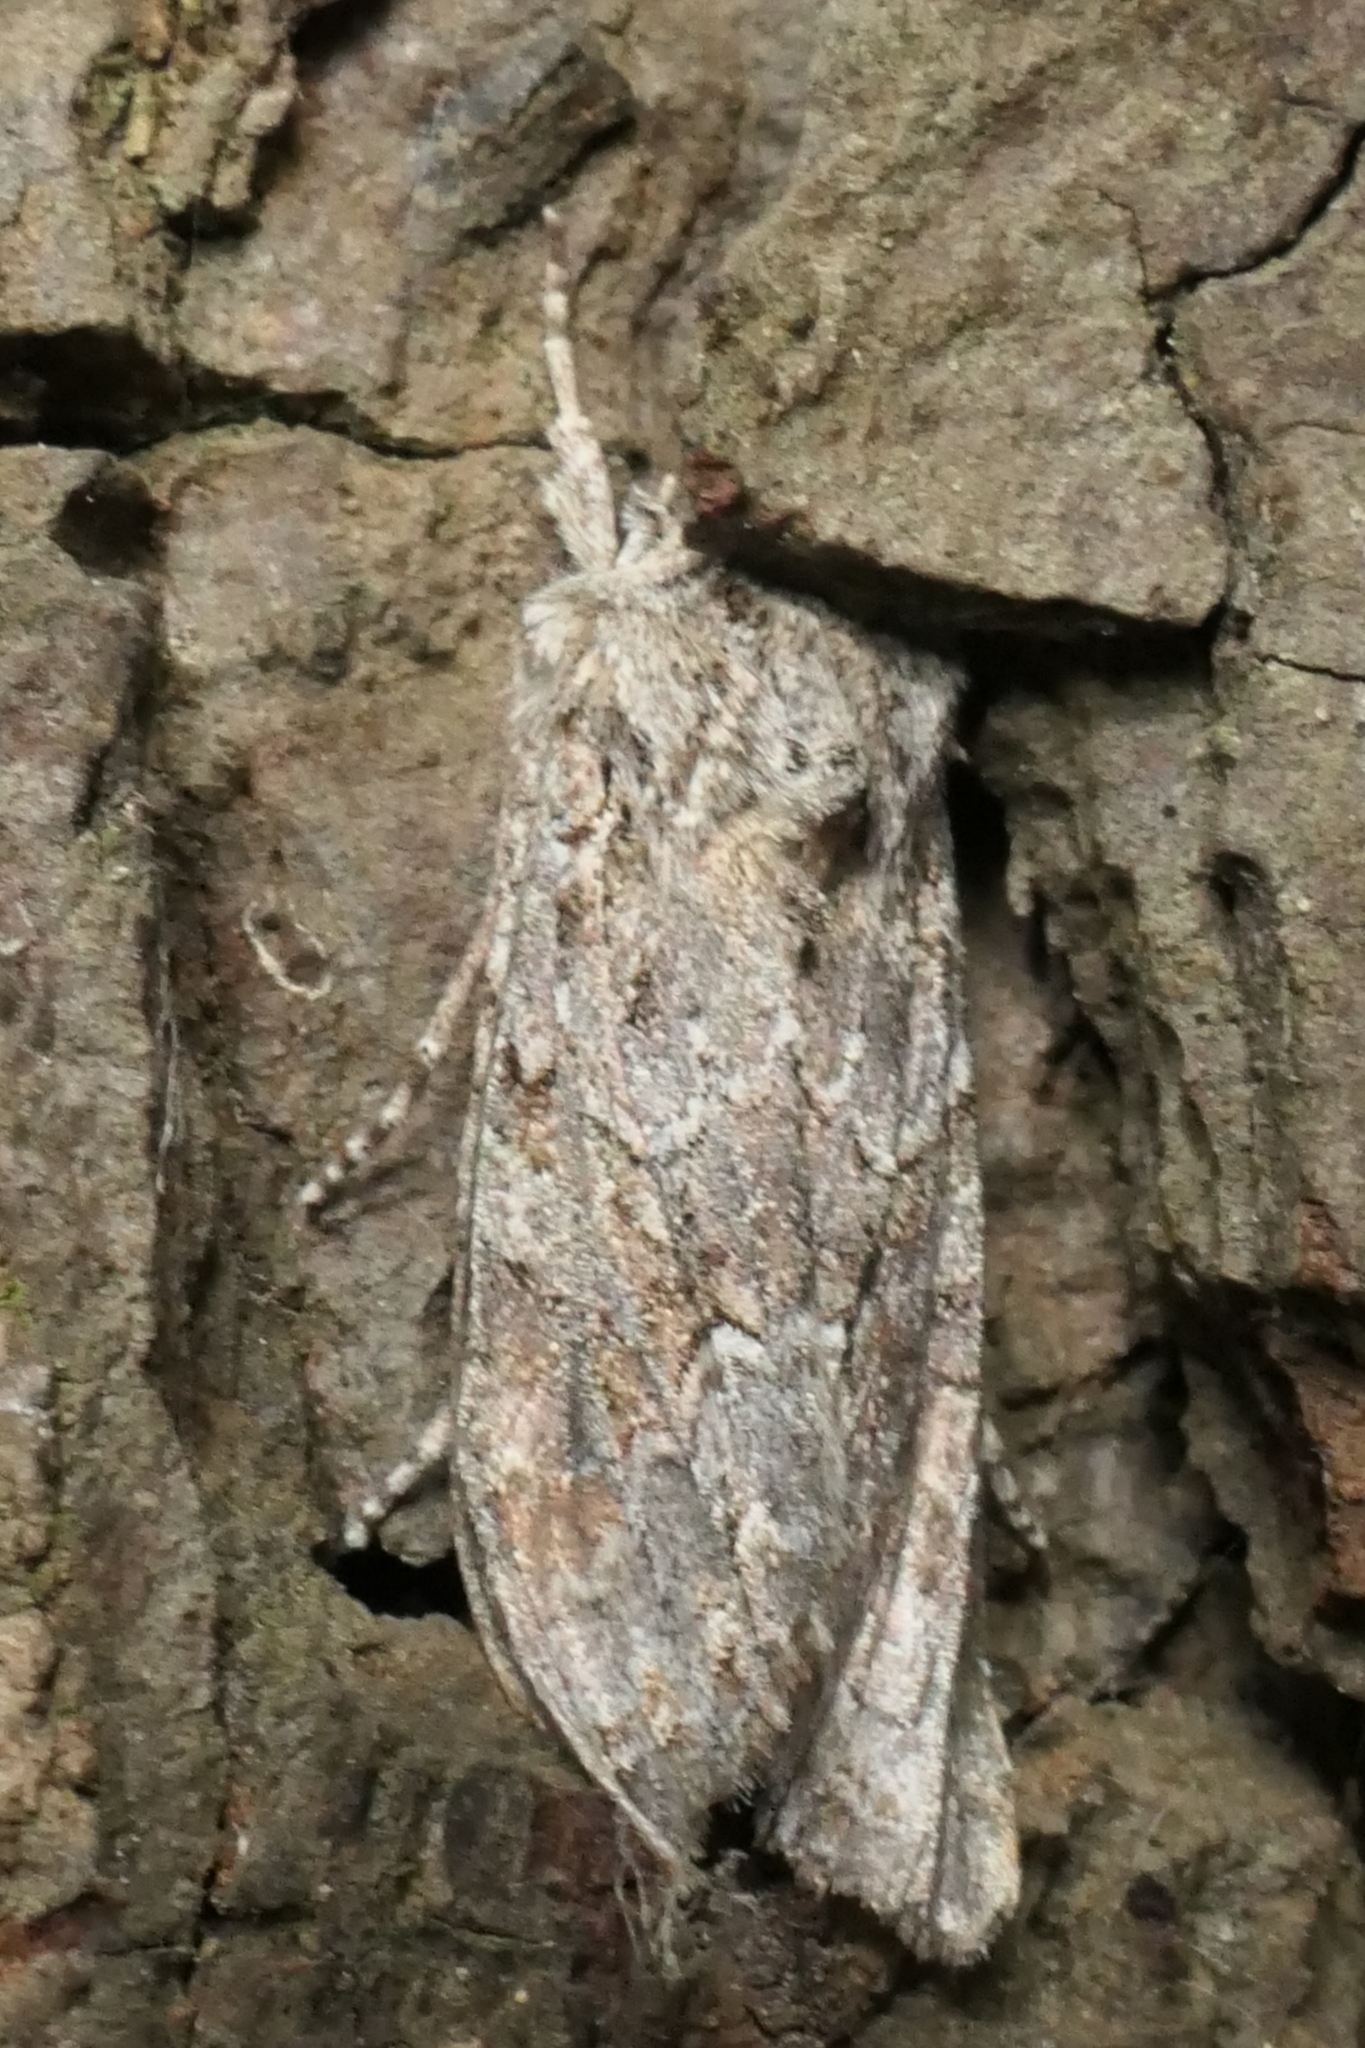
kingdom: Animalia
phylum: Arthropoda
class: Insecta
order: Lepidoptera
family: Noctuidae
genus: Ichneutica
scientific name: Ichneutica mutans
